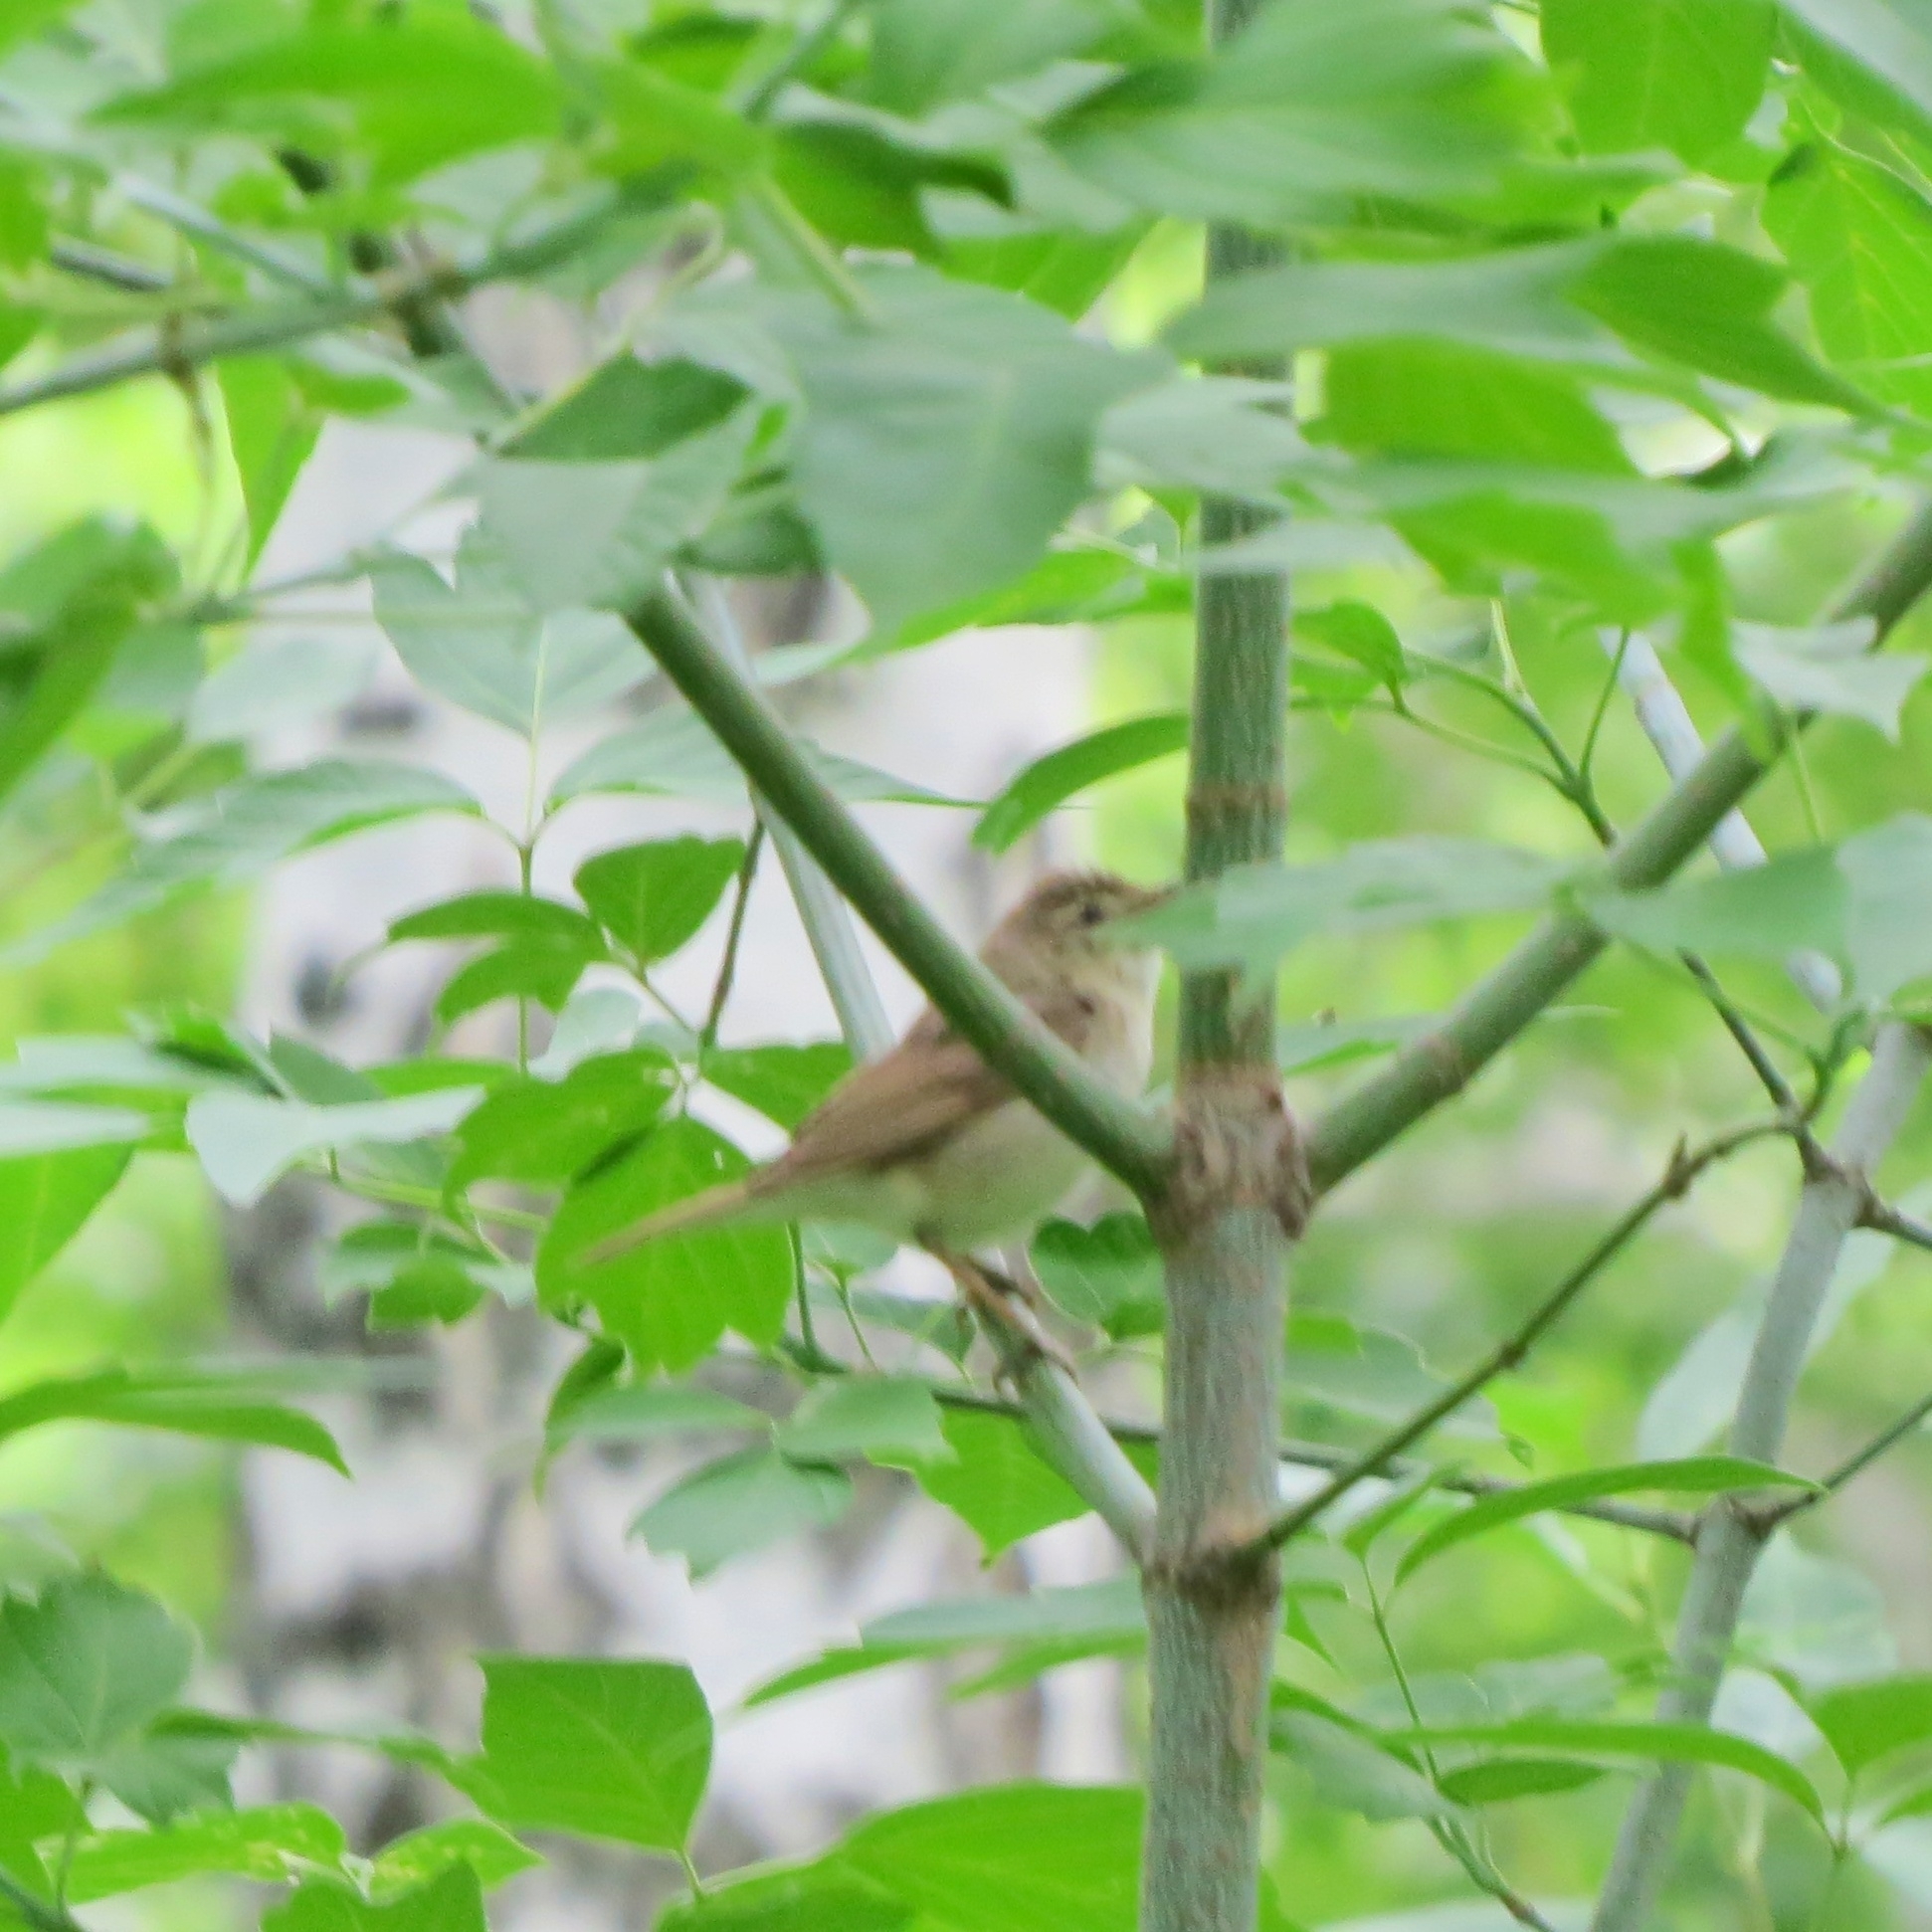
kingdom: Animalia
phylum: Chordata
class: Aves
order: Passeriformes
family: Acrocephalidae
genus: Acrocephalus
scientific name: Acrocephalus dumetorum
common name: Blyth's reed warbler
